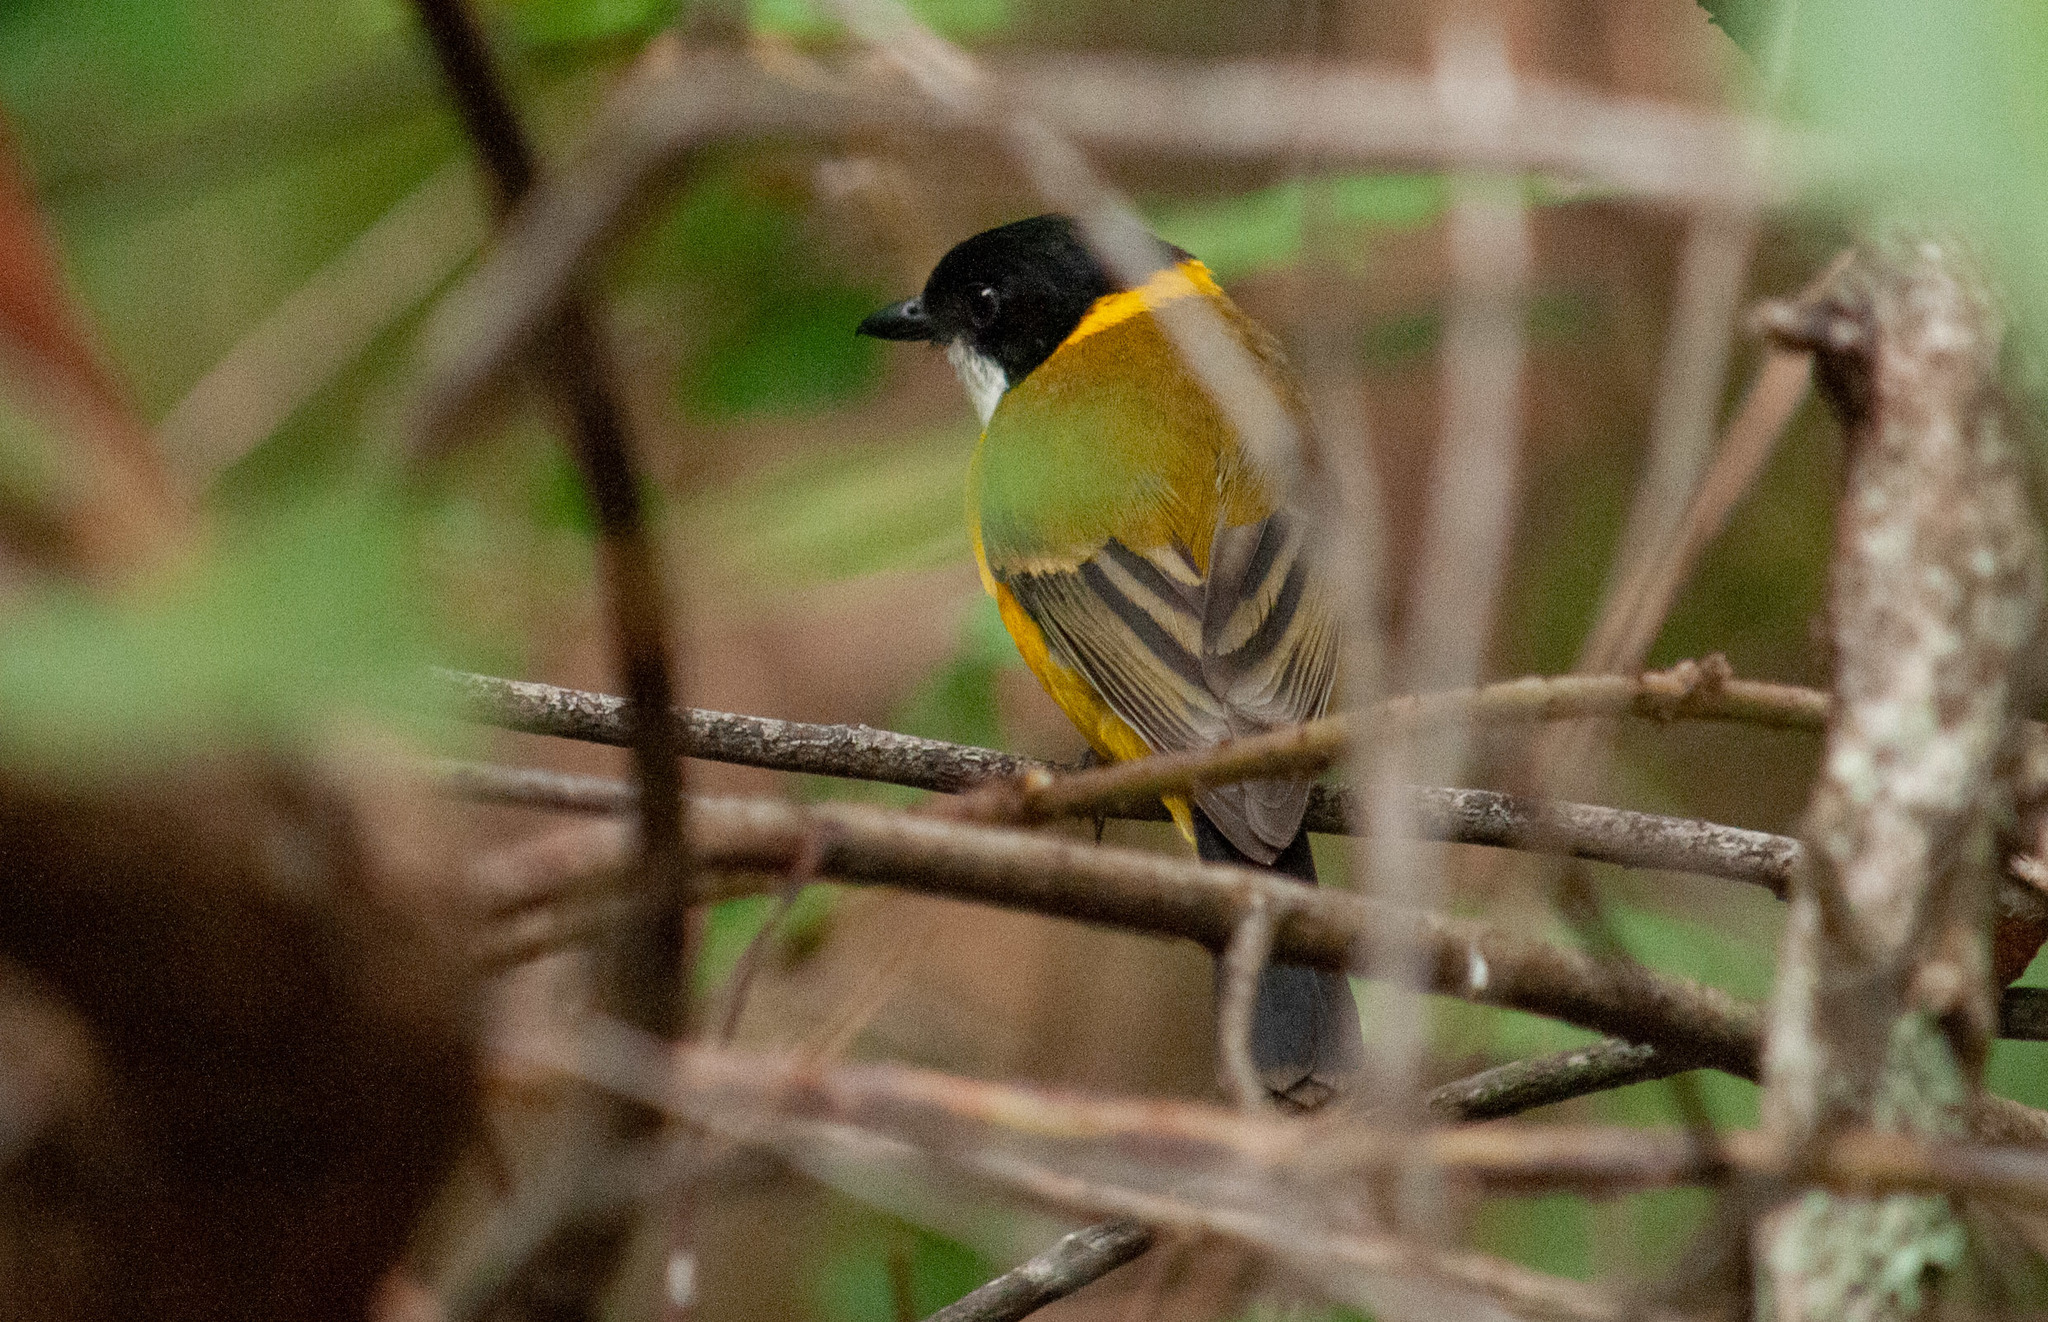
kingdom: Animalia
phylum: Chordata
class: Aves
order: Passeriformes
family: Pachycephalidae
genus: Pachycephala
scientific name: Pachycephala pectoralis
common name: Australian golden whistler
